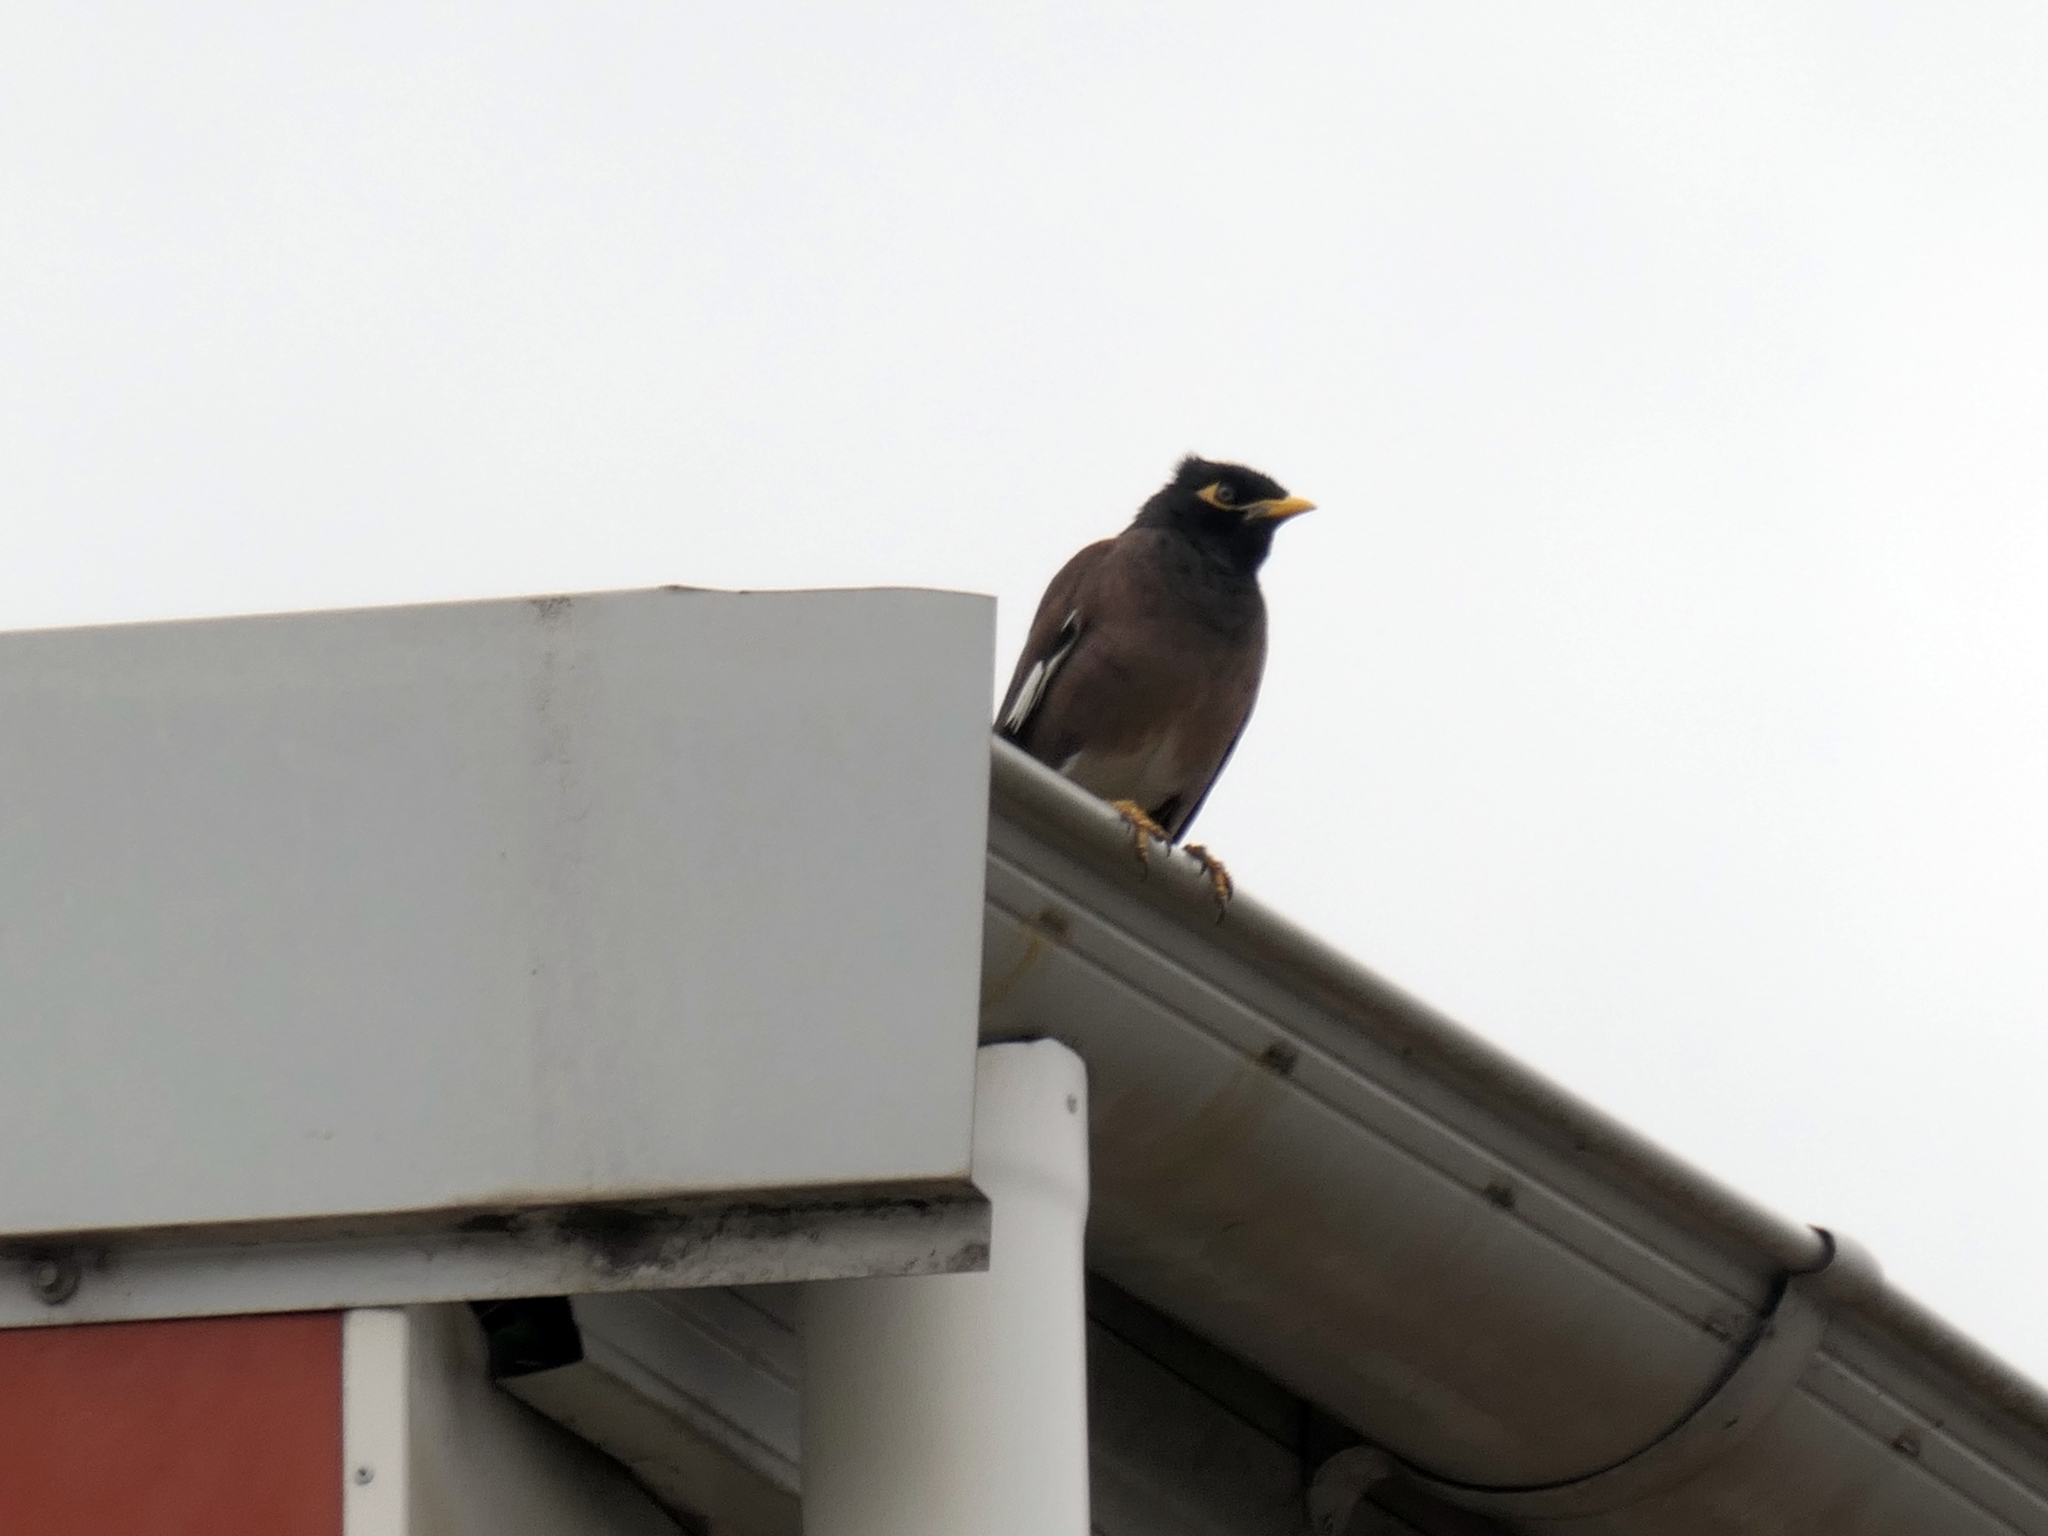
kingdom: Animalia
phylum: Chordata
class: Aves
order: Passeriformes
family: Sturnidae
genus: Acridotheres
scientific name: Acridotheres tristis
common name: Common myna
